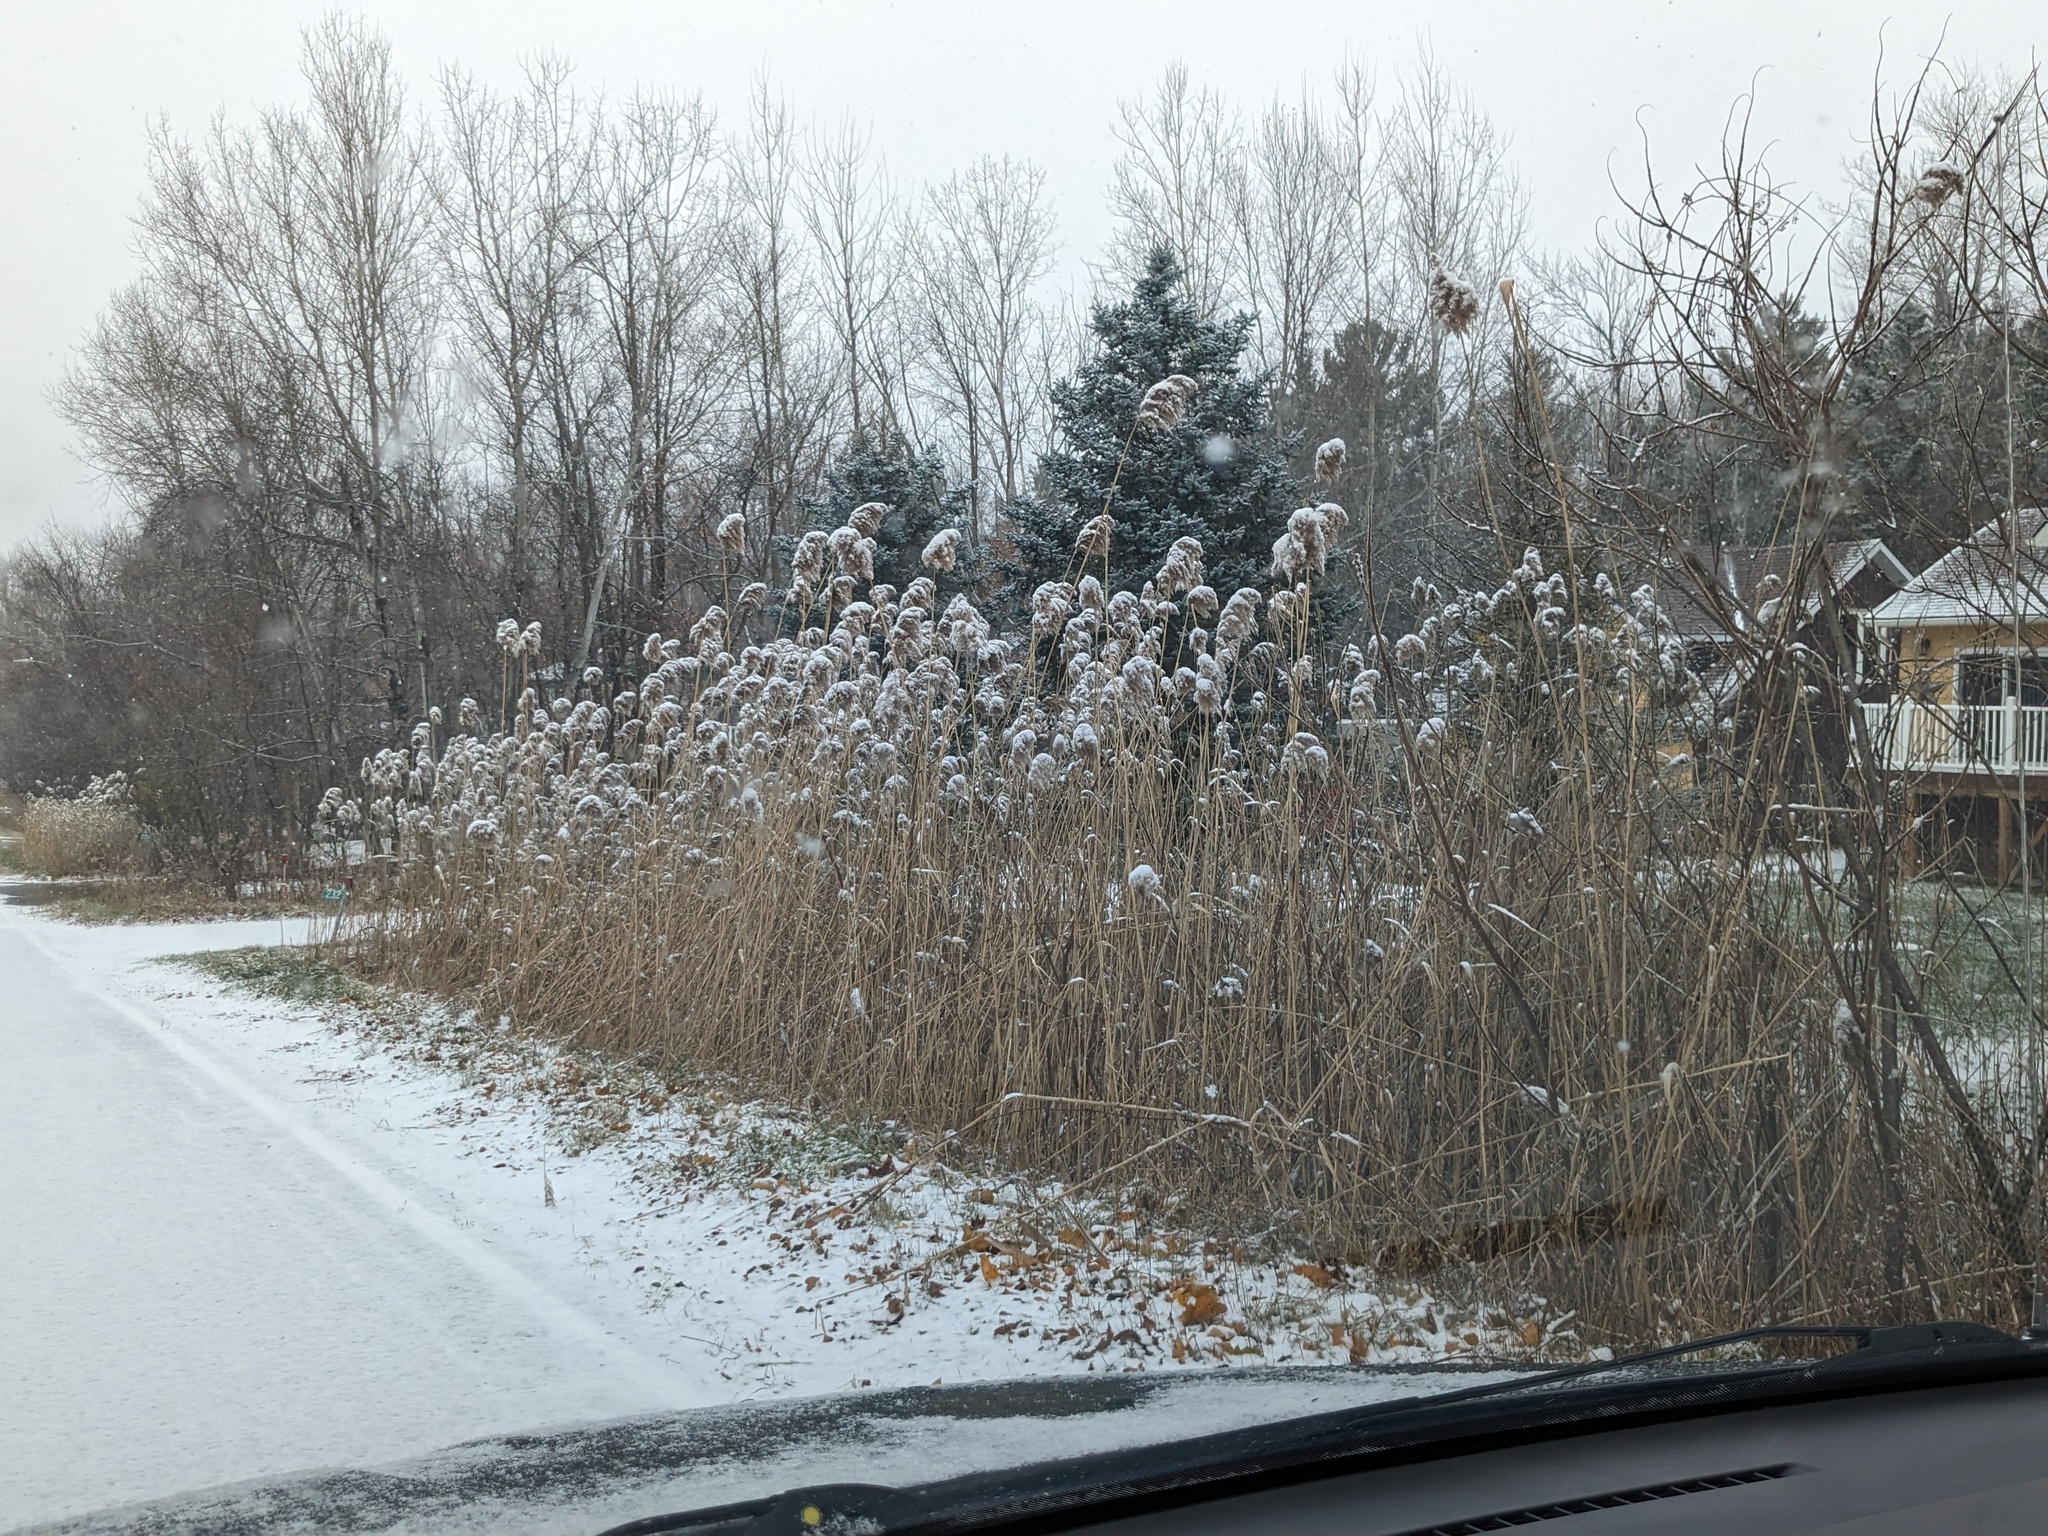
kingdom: Plantae
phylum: Tracheophyta
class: Liliopsida
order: Poales
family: Poaceae
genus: Phragmites
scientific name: Phragmites australis
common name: Common reed
